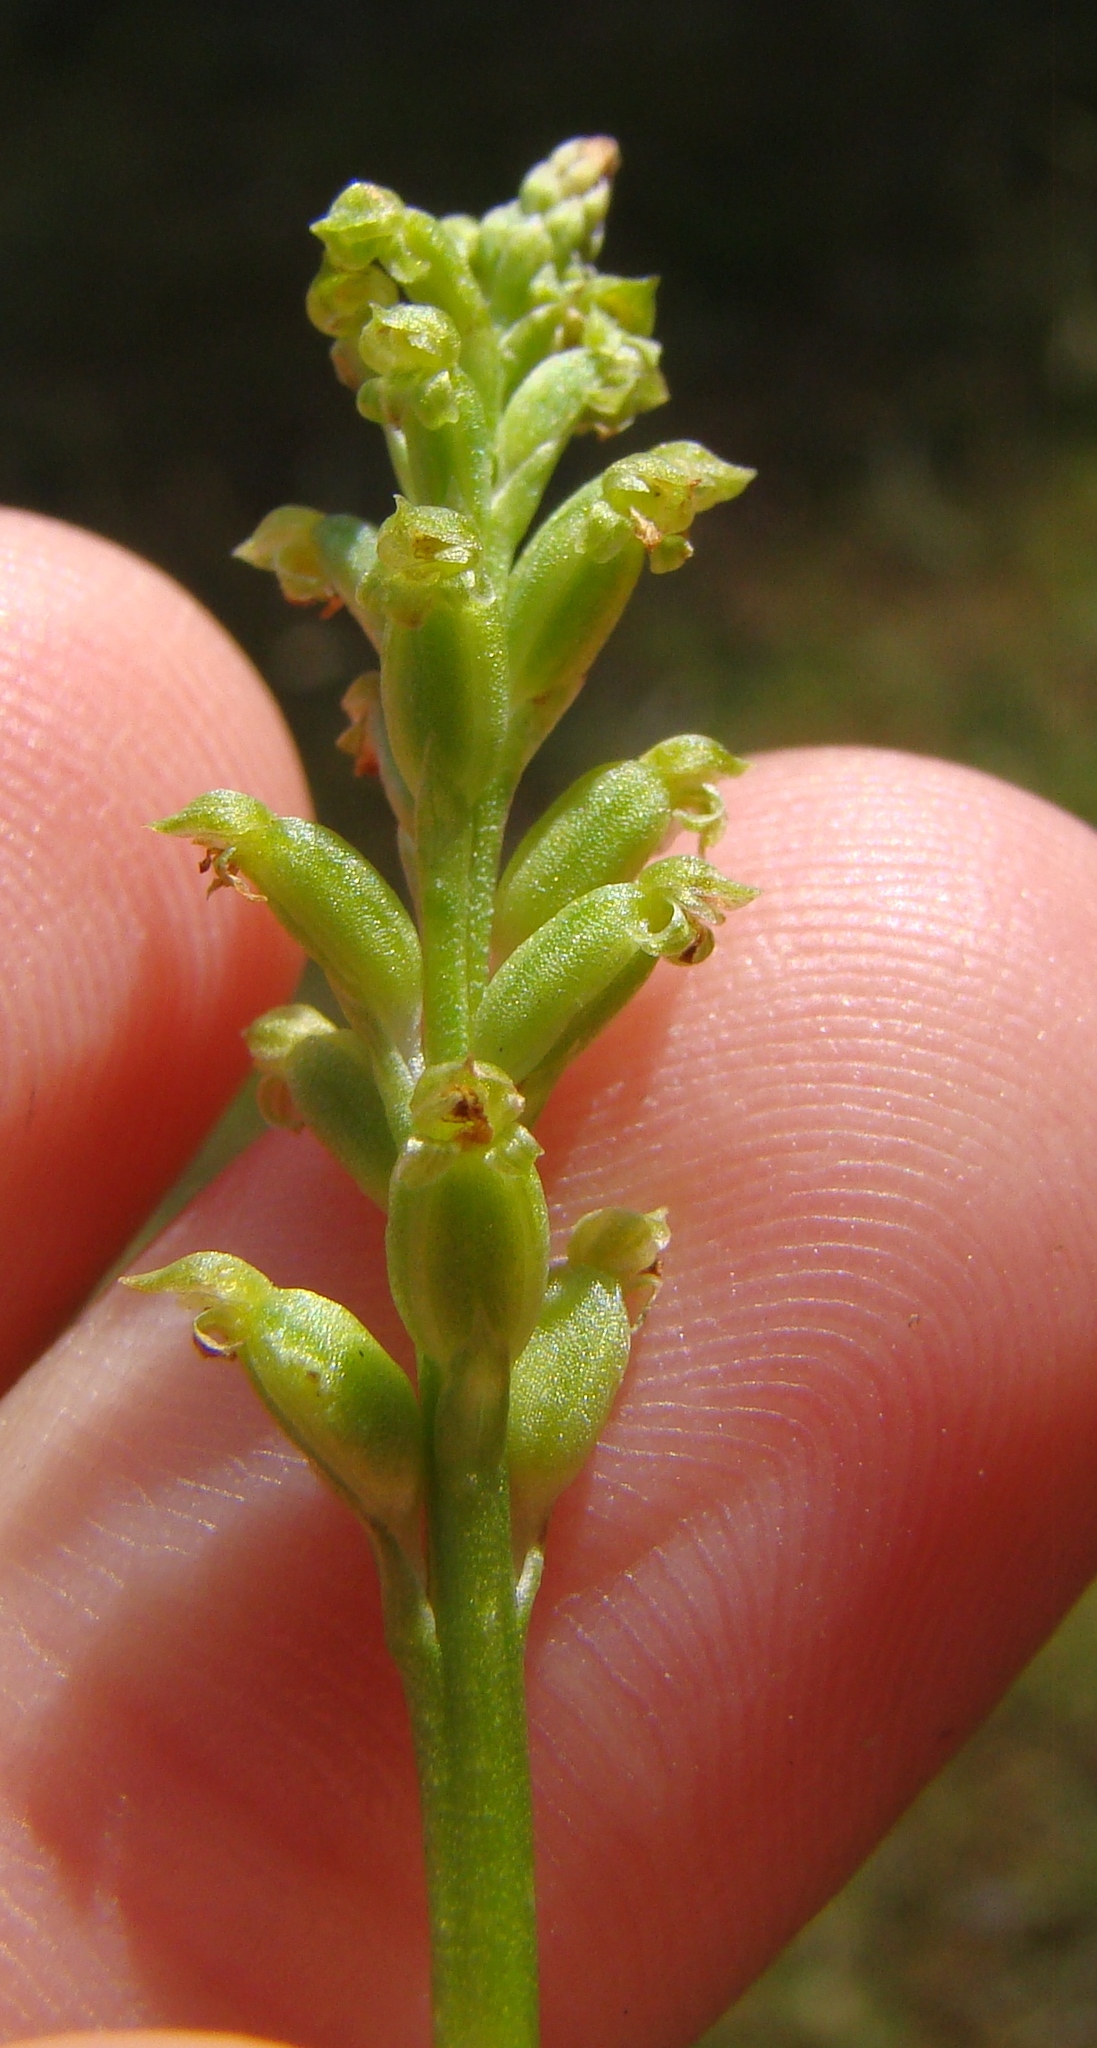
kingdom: Plantae
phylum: Tracheophyta
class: Liliopsida
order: Asparagales
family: Orchidaceae
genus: Microtis
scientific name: Microtis unifolia
